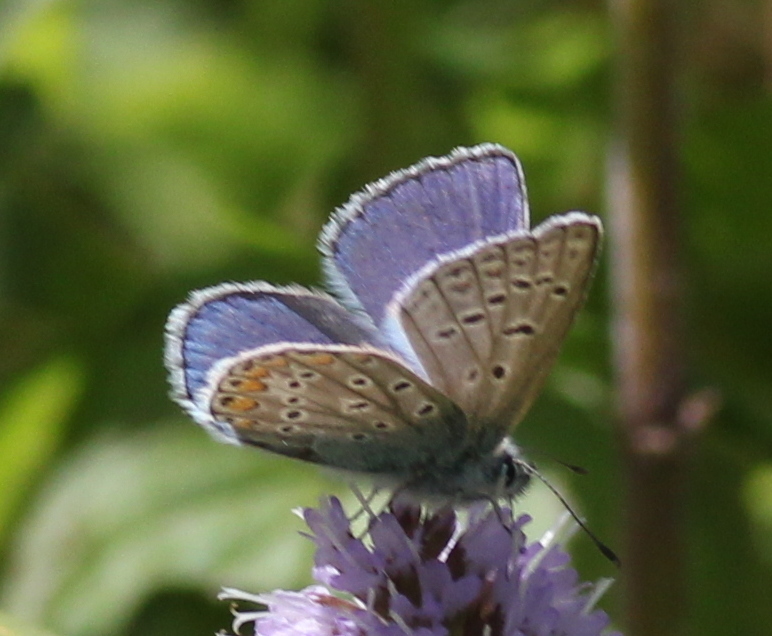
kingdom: Animalia
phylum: Arthropoda
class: Insecta
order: Lepidoptera
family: Lycaenidae
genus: Polyommatus
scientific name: Polyommatus icarus
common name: Common blue
